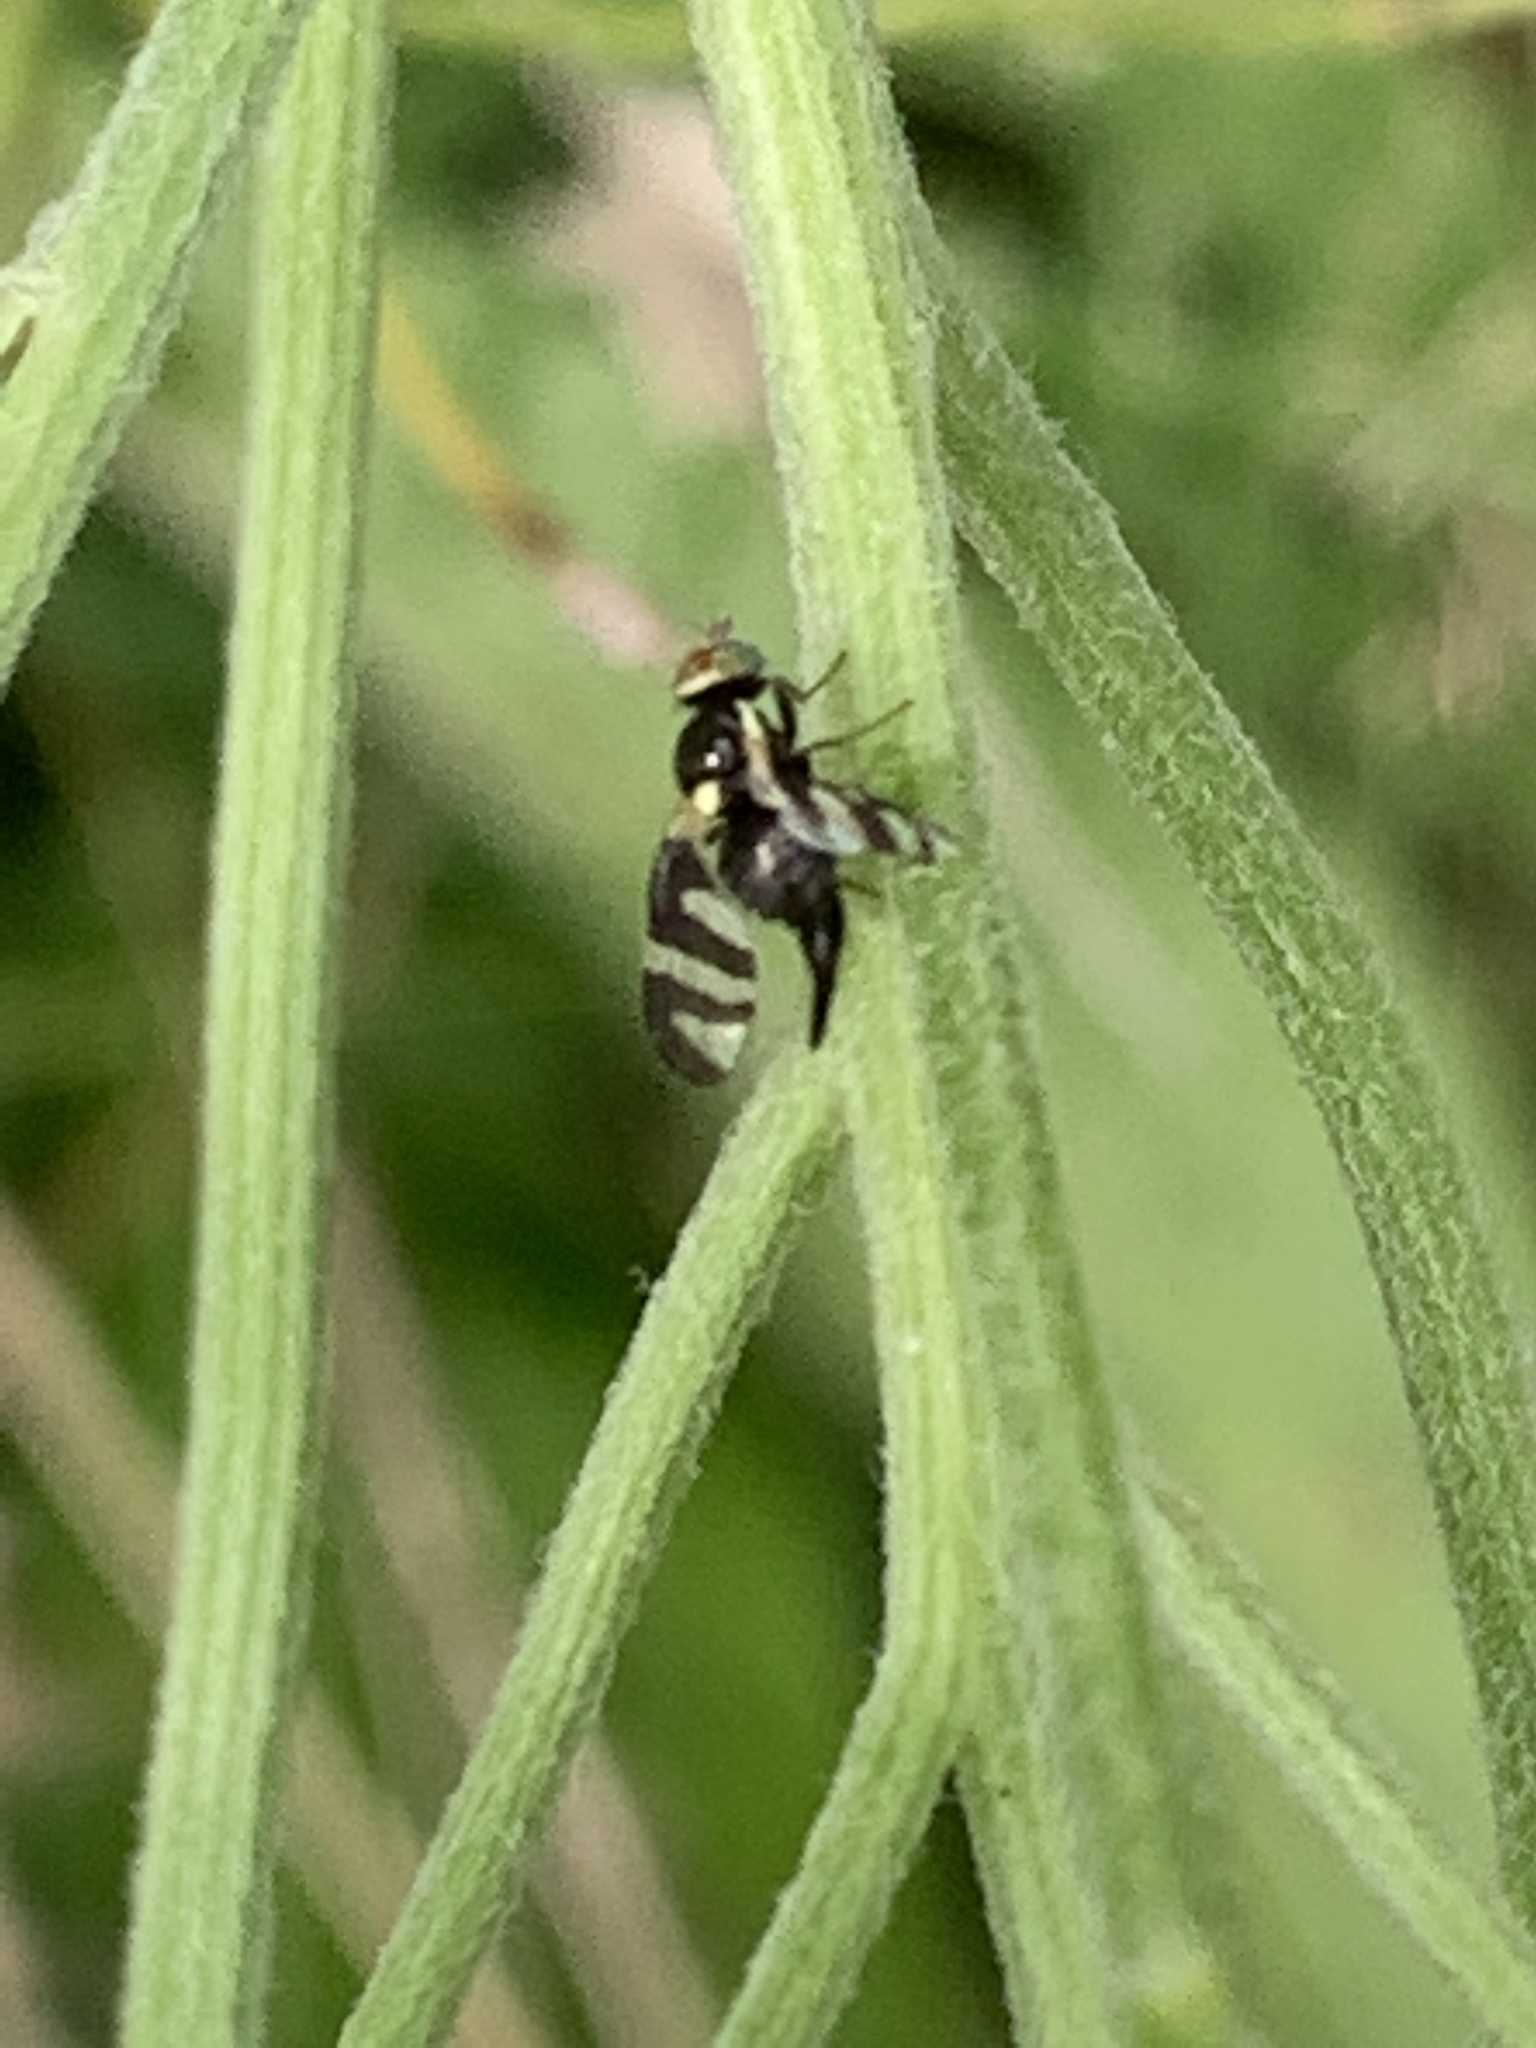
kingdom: Animalia
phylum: Arthropoda
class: Insecta
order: Diptera
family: Tephritidae
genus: Urophora
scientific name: Urophora cardui
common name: Fruit fly
